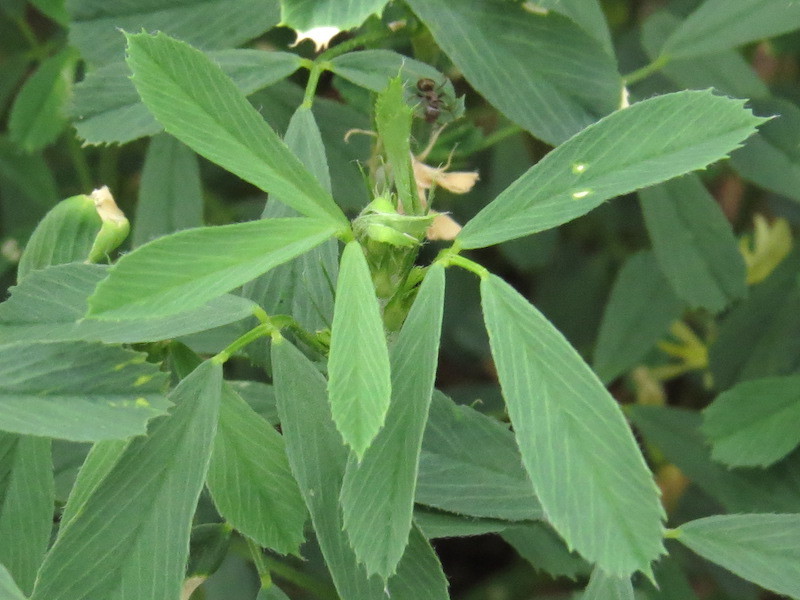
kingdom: Plantae
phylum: Tracheophyta
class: Magnoliopsida
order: Fabales
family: Fabaceae
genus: Medicago
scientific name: Medicago varia
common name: Sand lucerne
